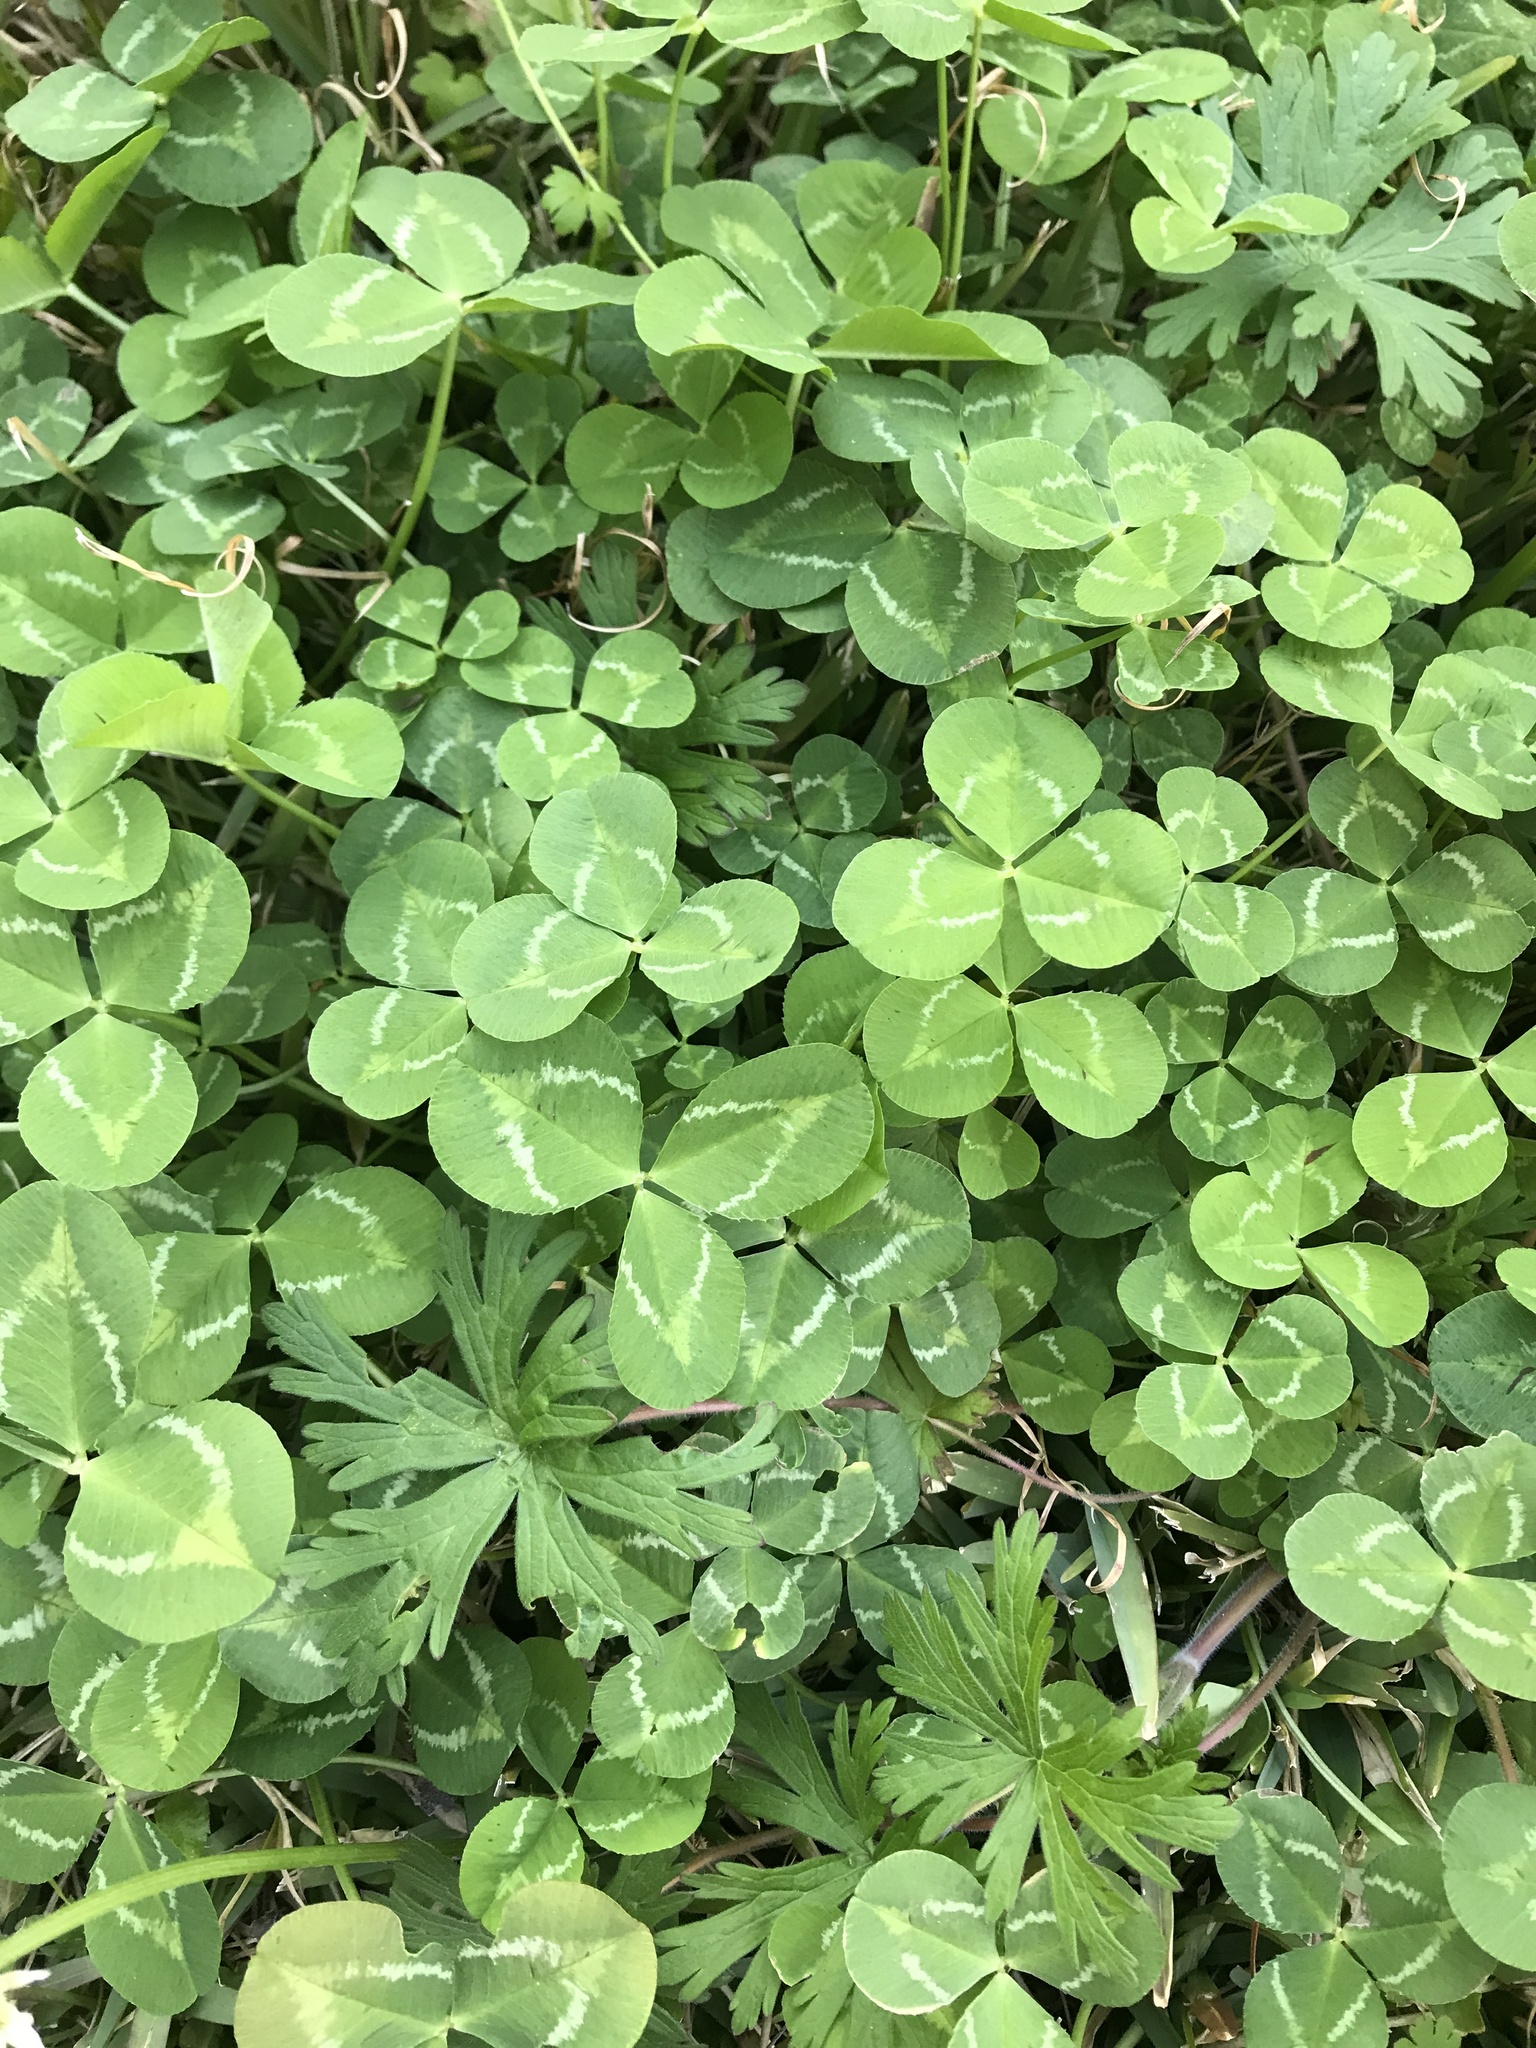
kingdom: Plantae
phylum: Tracheophyta
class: Magnoliopsida
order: Fabales
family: Fabaceae
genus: Trifolium
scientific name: Trifolium repens
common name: White clover
